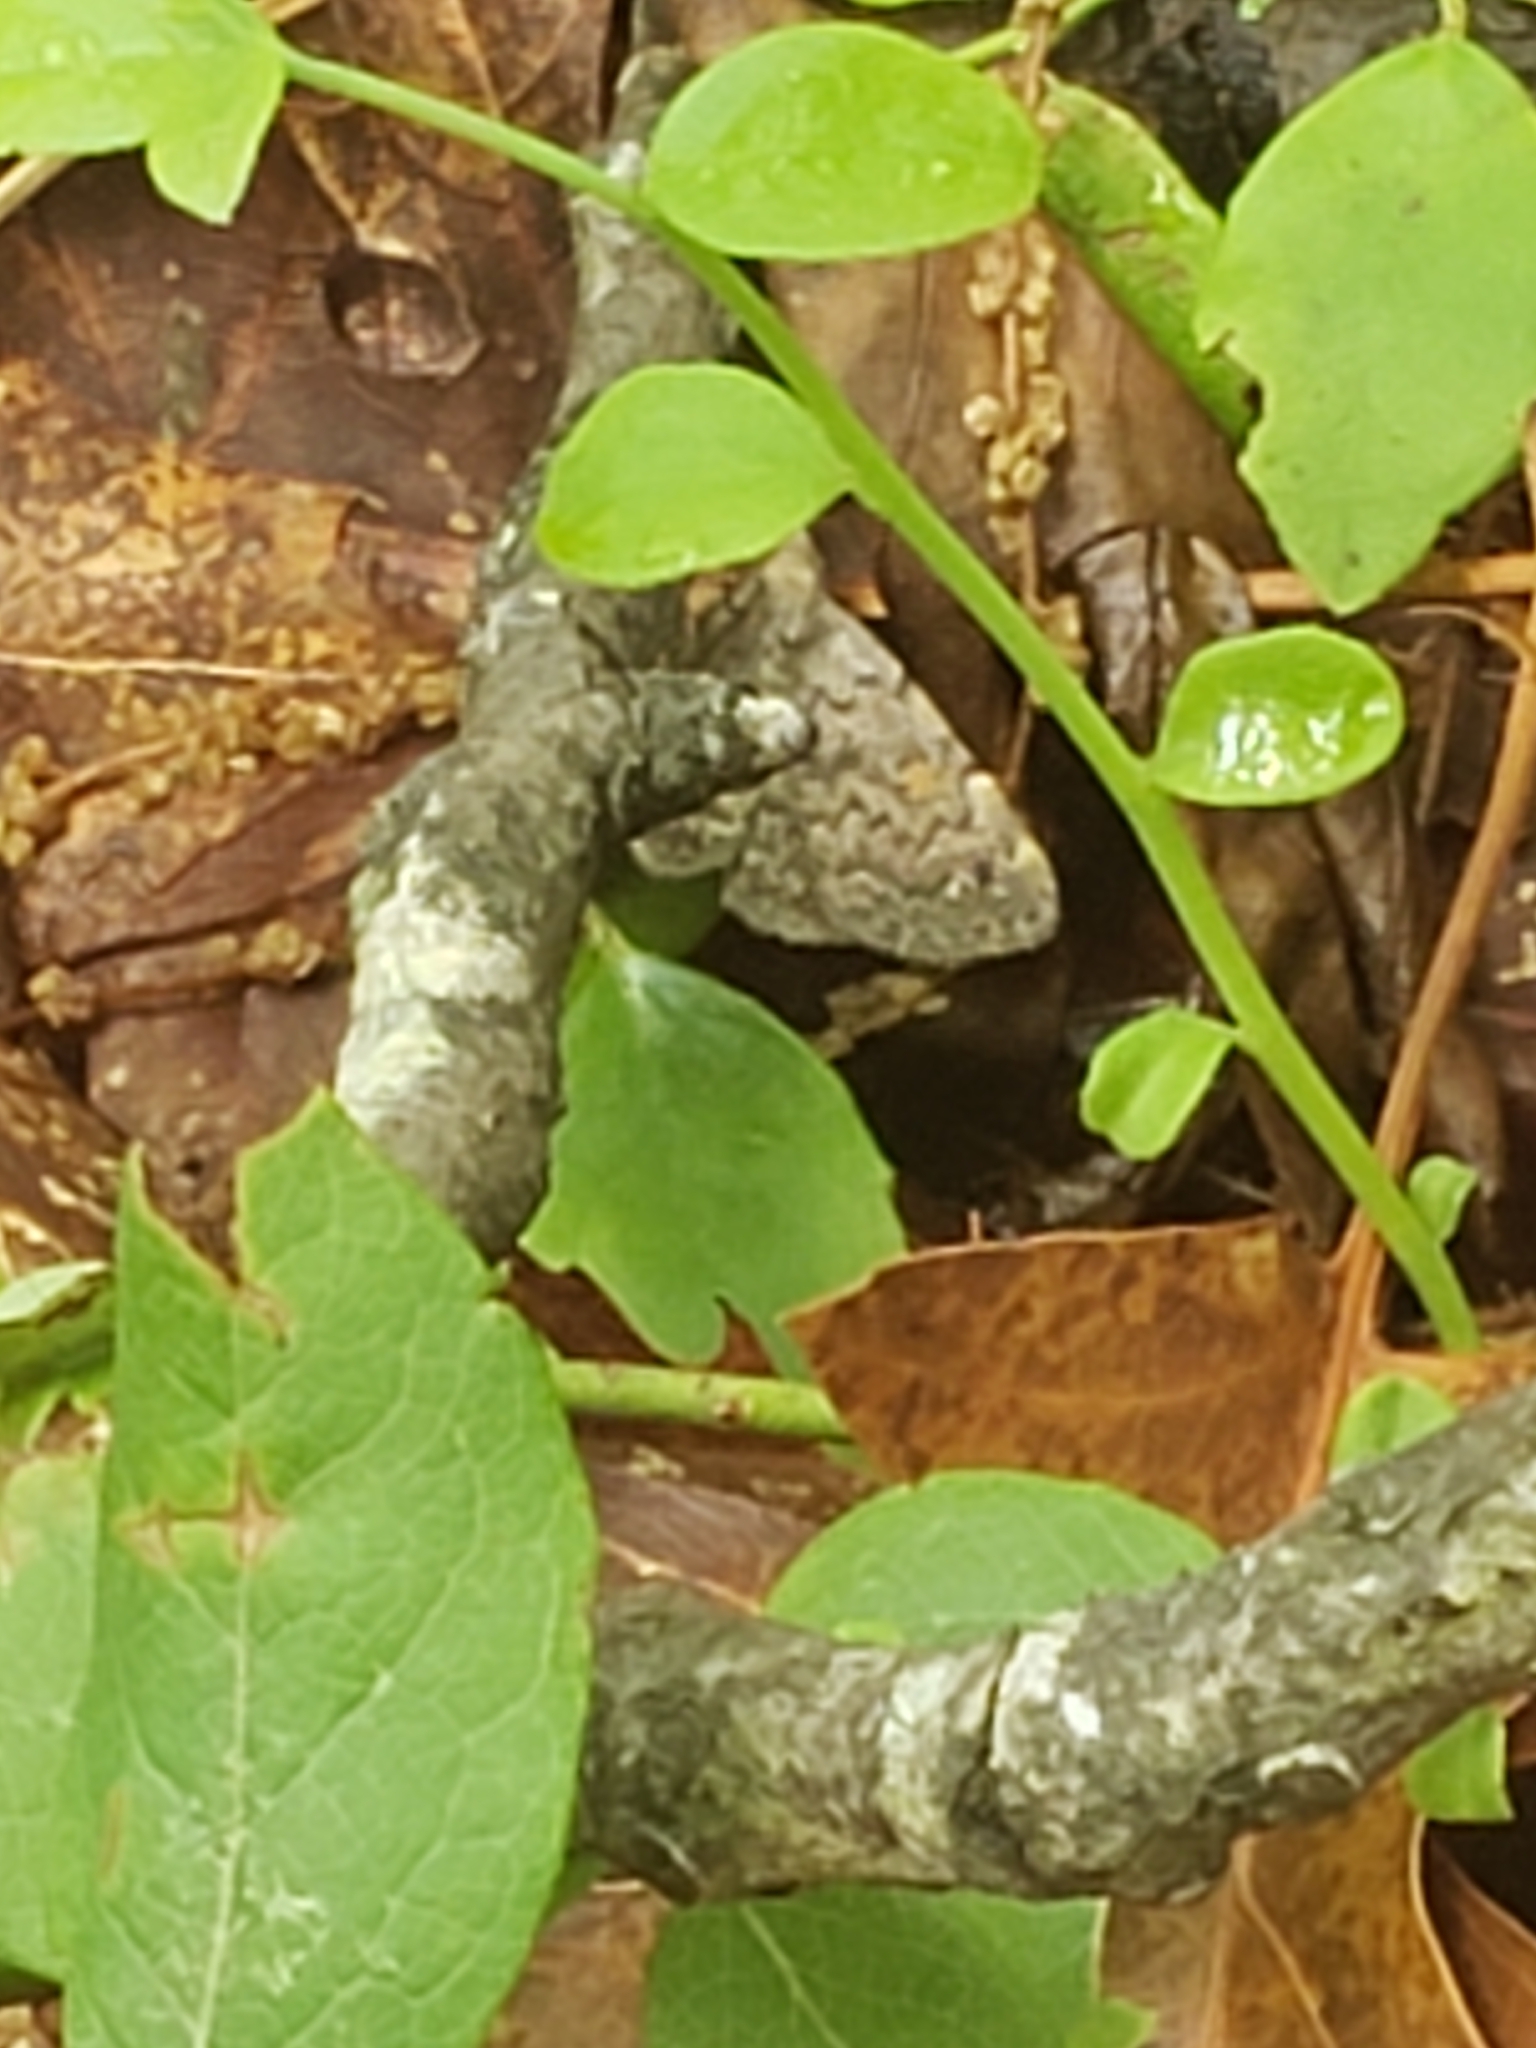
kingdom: Animalia
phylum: Arthropoda
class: Insecta
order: Lepidoptera
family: Erebidae
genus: Idia
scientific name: Idia aemula
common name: Common idia moth
